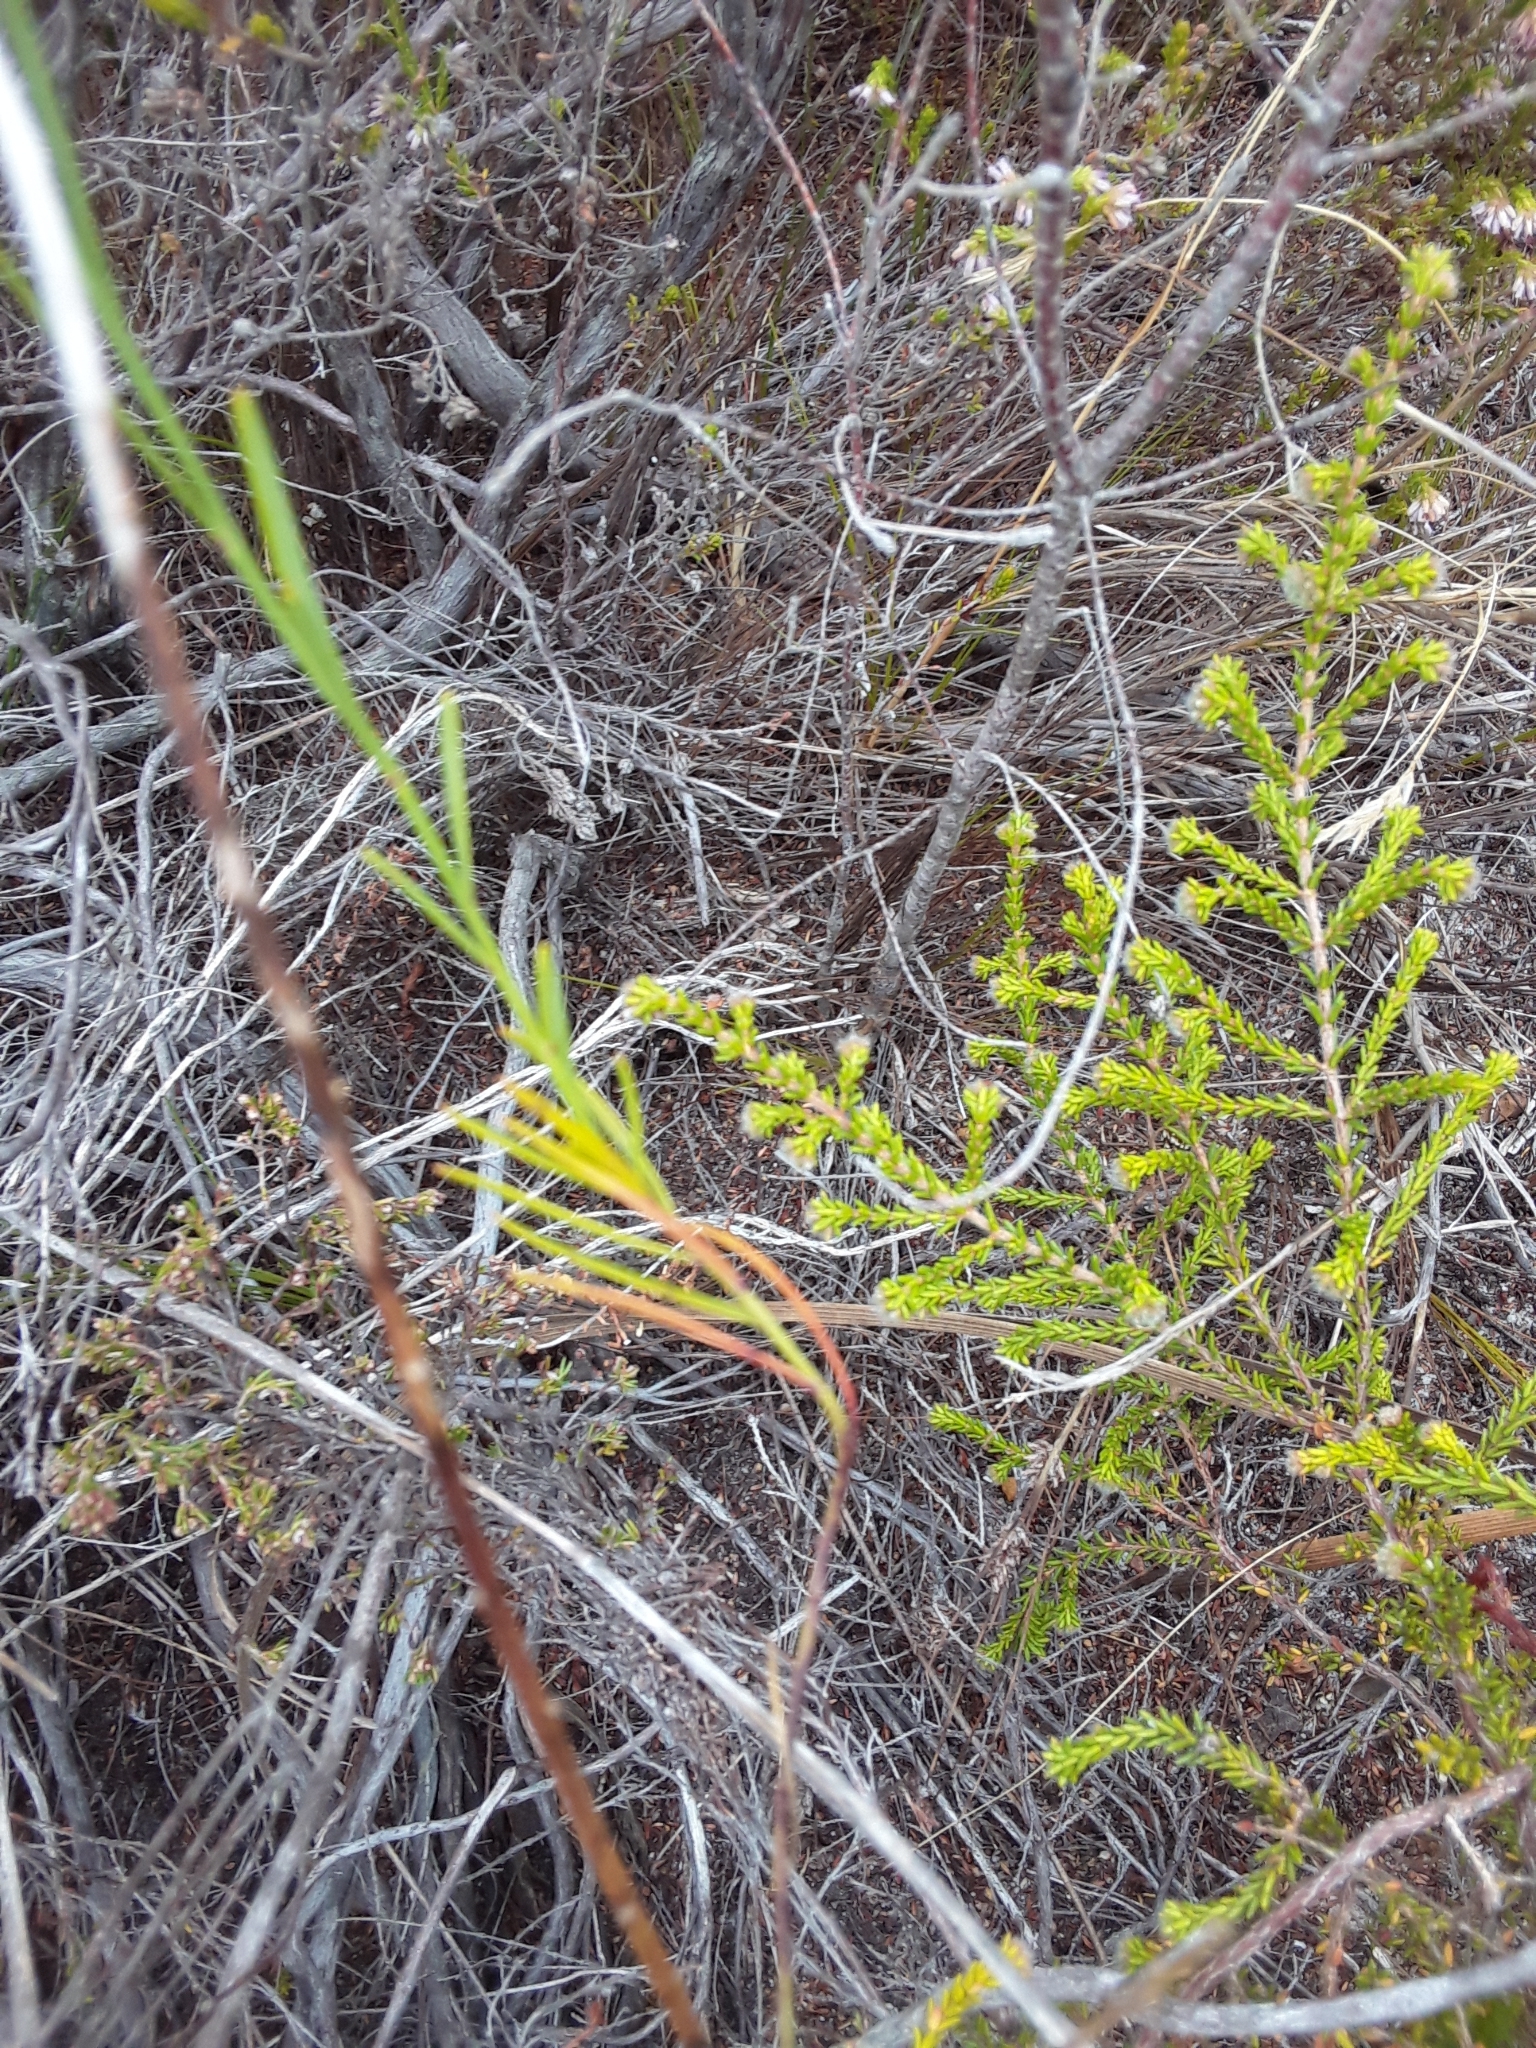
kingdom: Plantae
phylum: Tracheophyta
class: Magnoliopsida
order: Brassicales
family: Brassicaceae
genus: Heliophila
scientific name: Heliophila linearis
